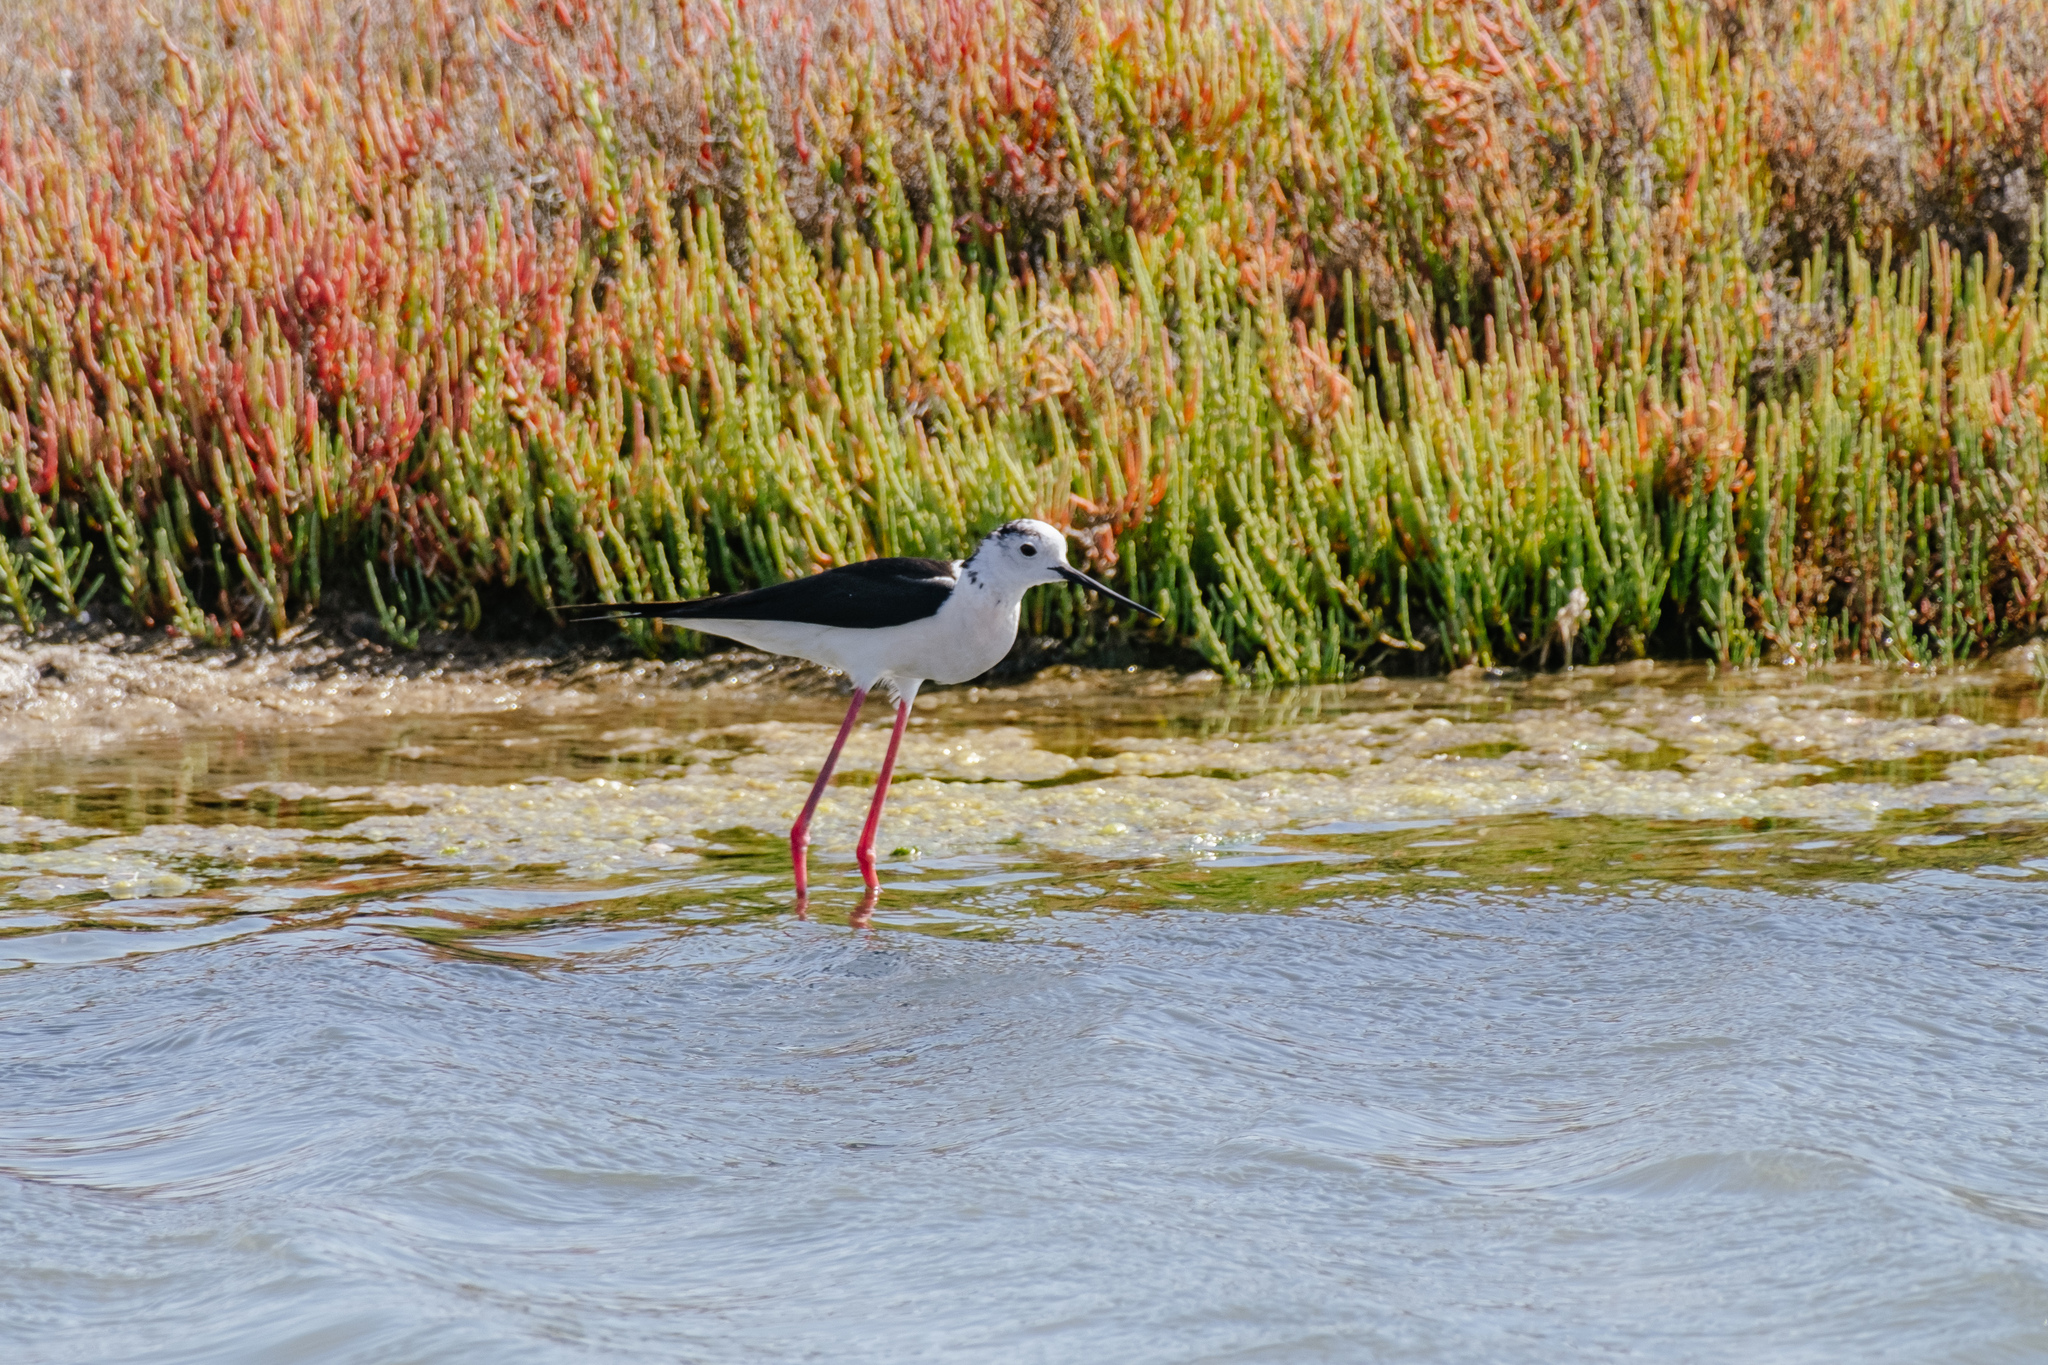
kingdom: Animalia
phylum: Chordata
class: Aves
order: Charadriiformes
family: Recurvirostridae
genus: Himantopus
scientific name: Himantopus himantopus
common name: Black-winged stilt
